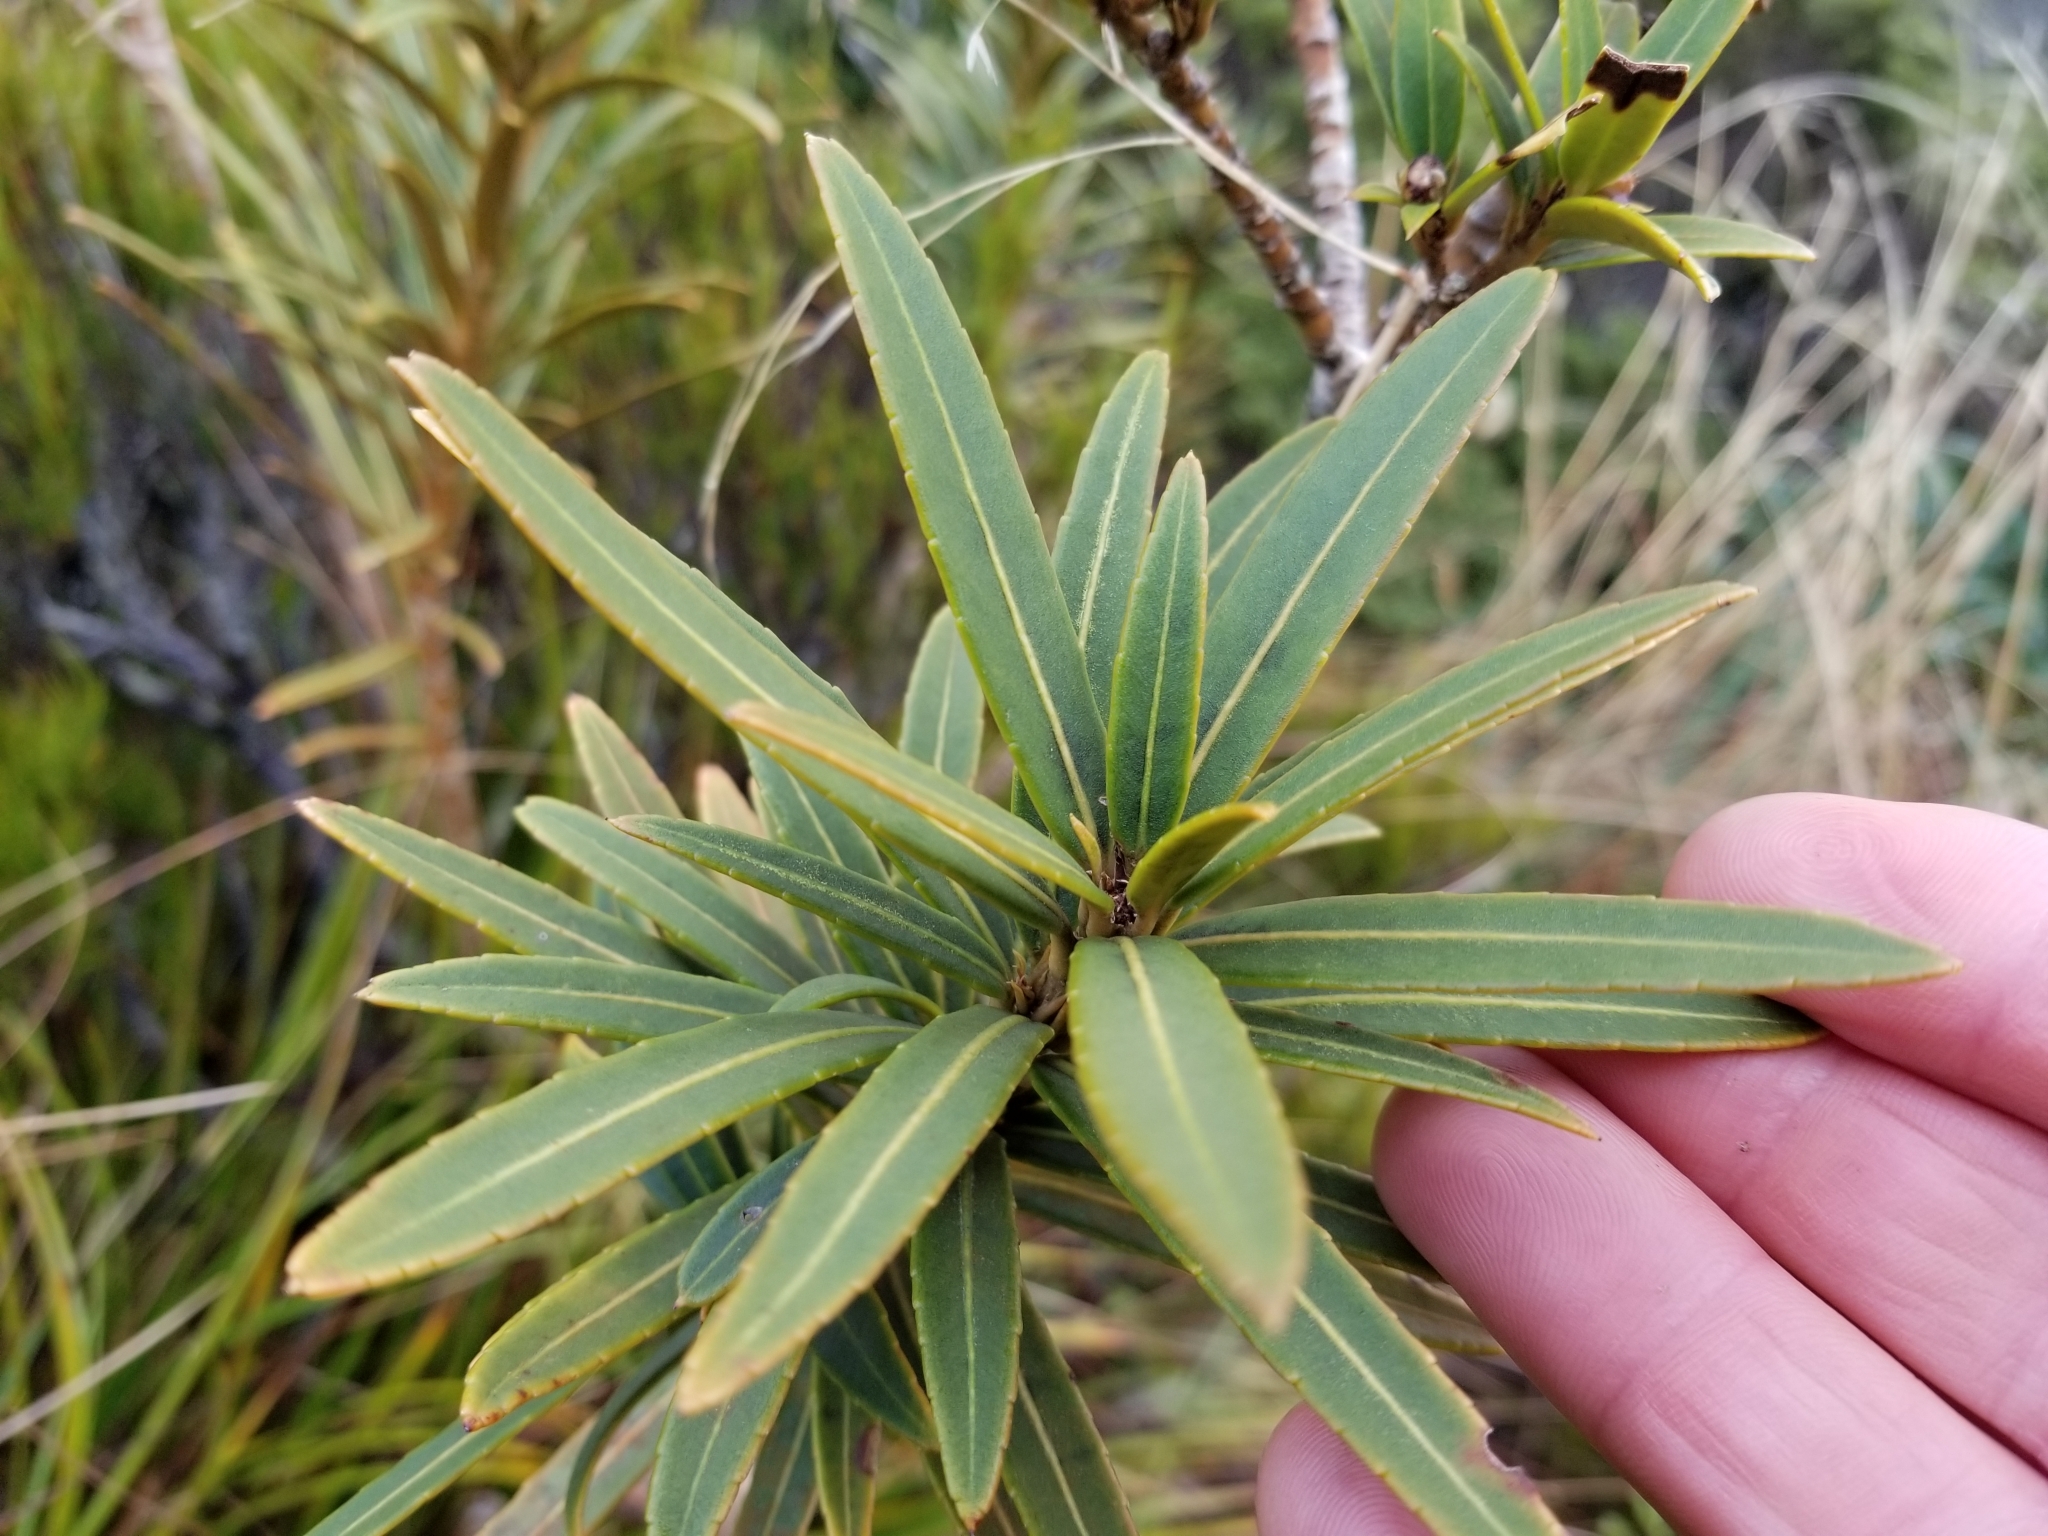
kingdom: Plantae
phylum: Tracheophyta
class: Magnoliopsida
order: Apiales
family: Araliaceae
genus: Pseudopanax
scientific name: Pseudopanax linearis
